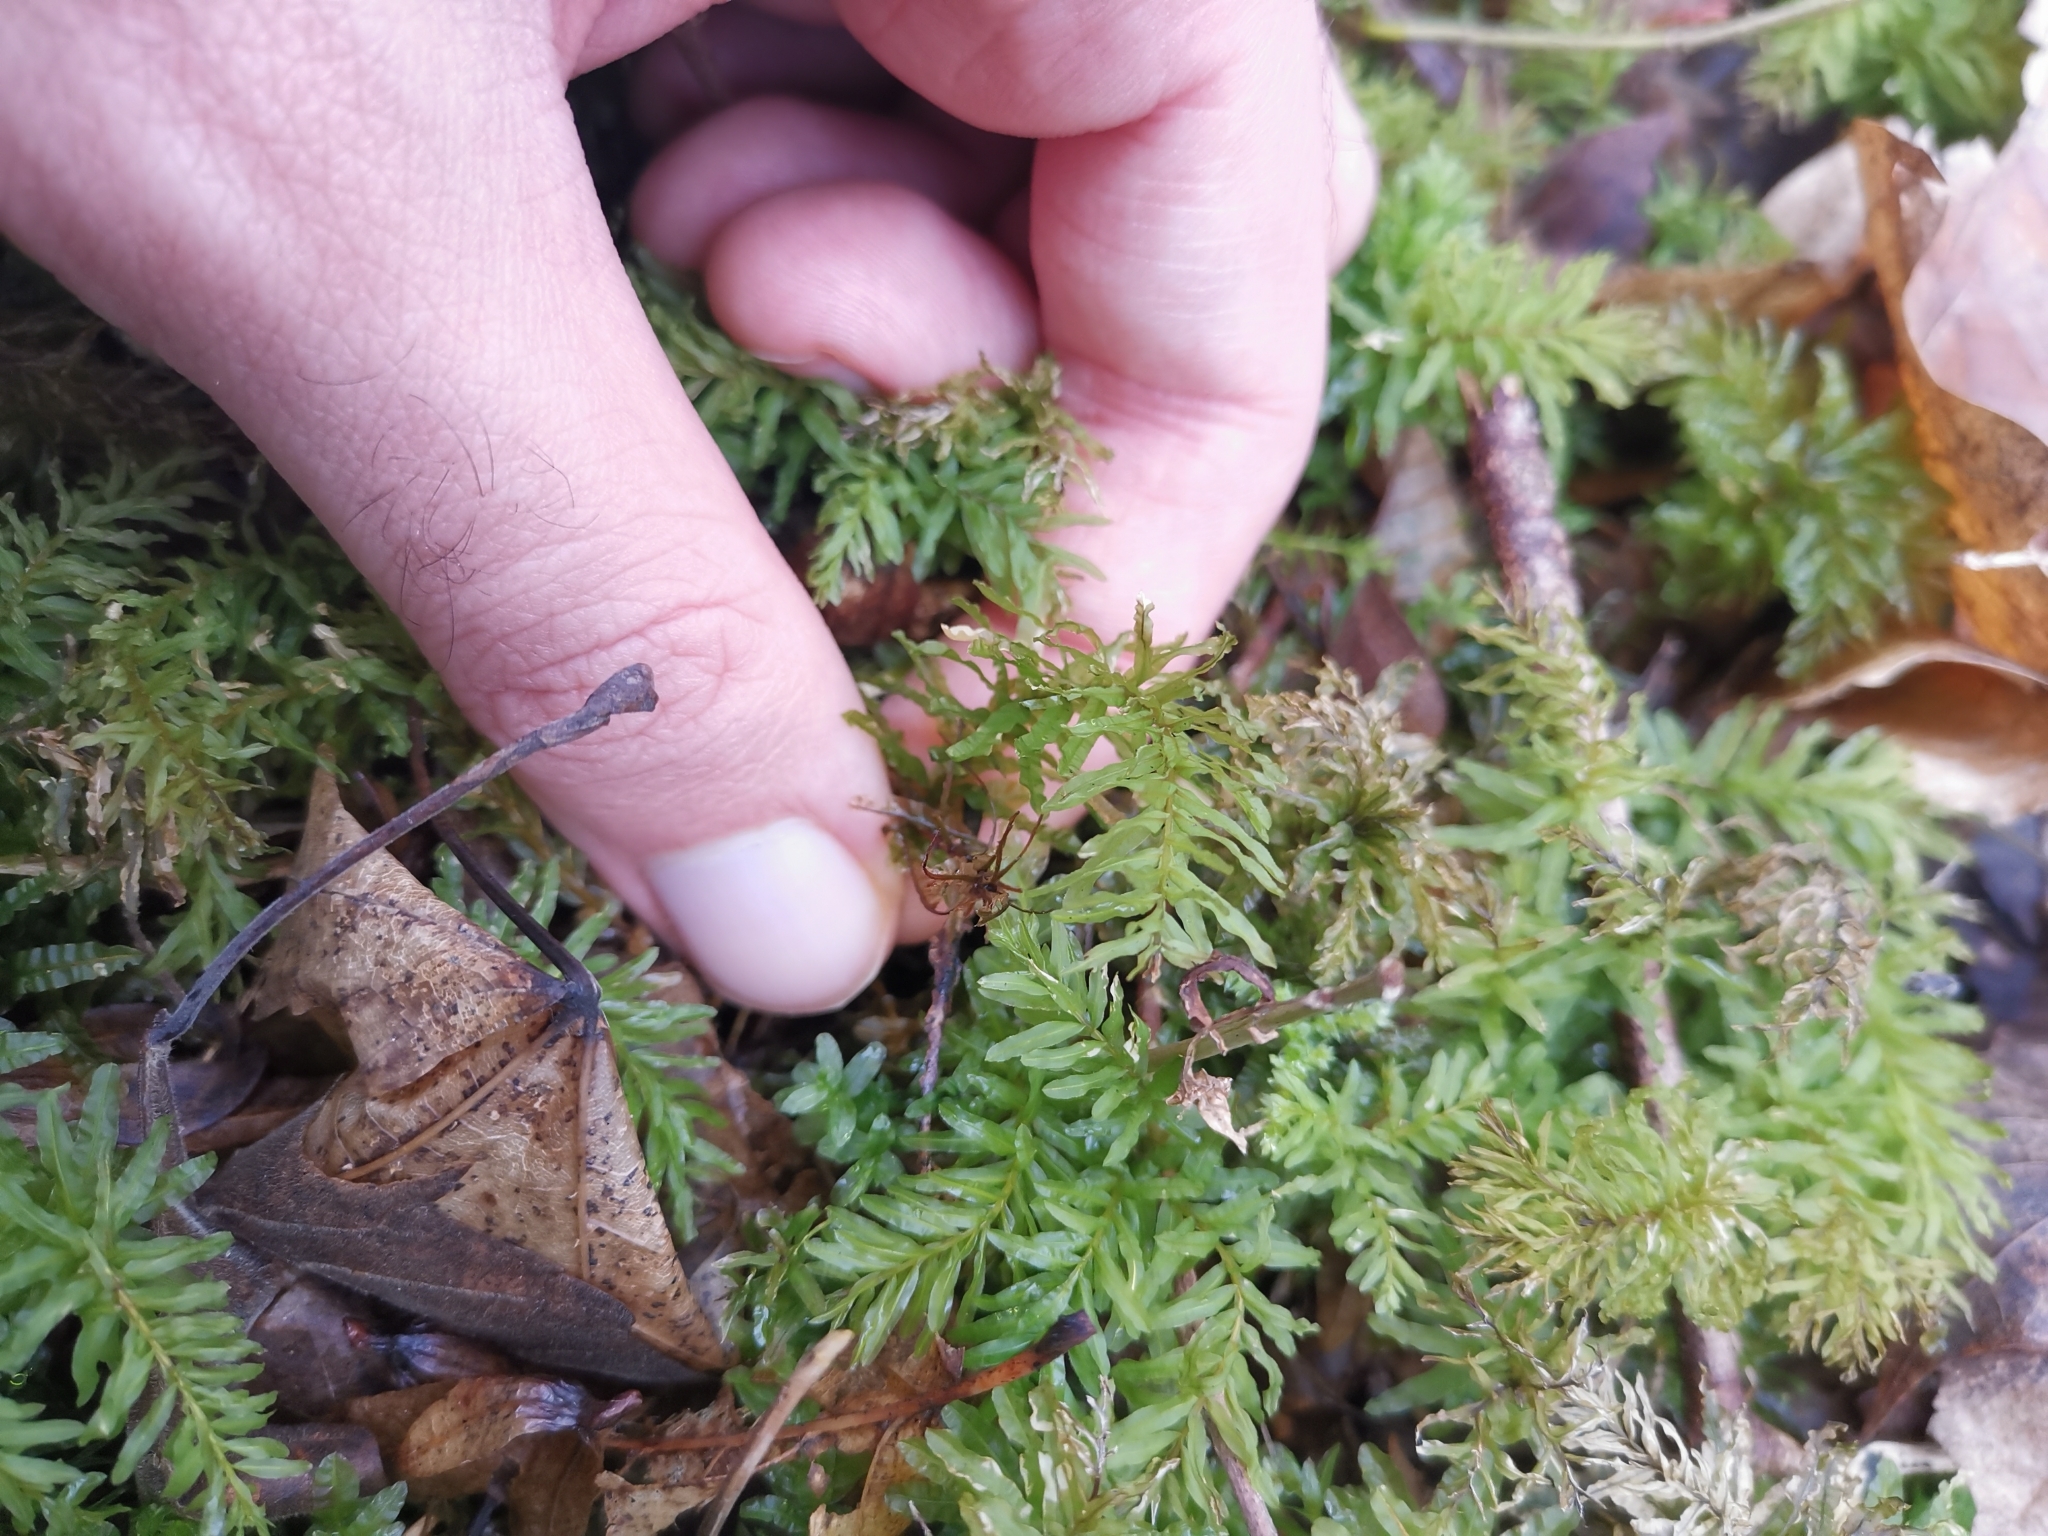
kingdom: Plantae
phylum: Bryophyta
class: Bryopsida
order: Bryales
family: Mniaceae
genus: Plagiomnium
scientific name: Plagiomnium undulatum
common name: Hart's-tongue thyme-moss
